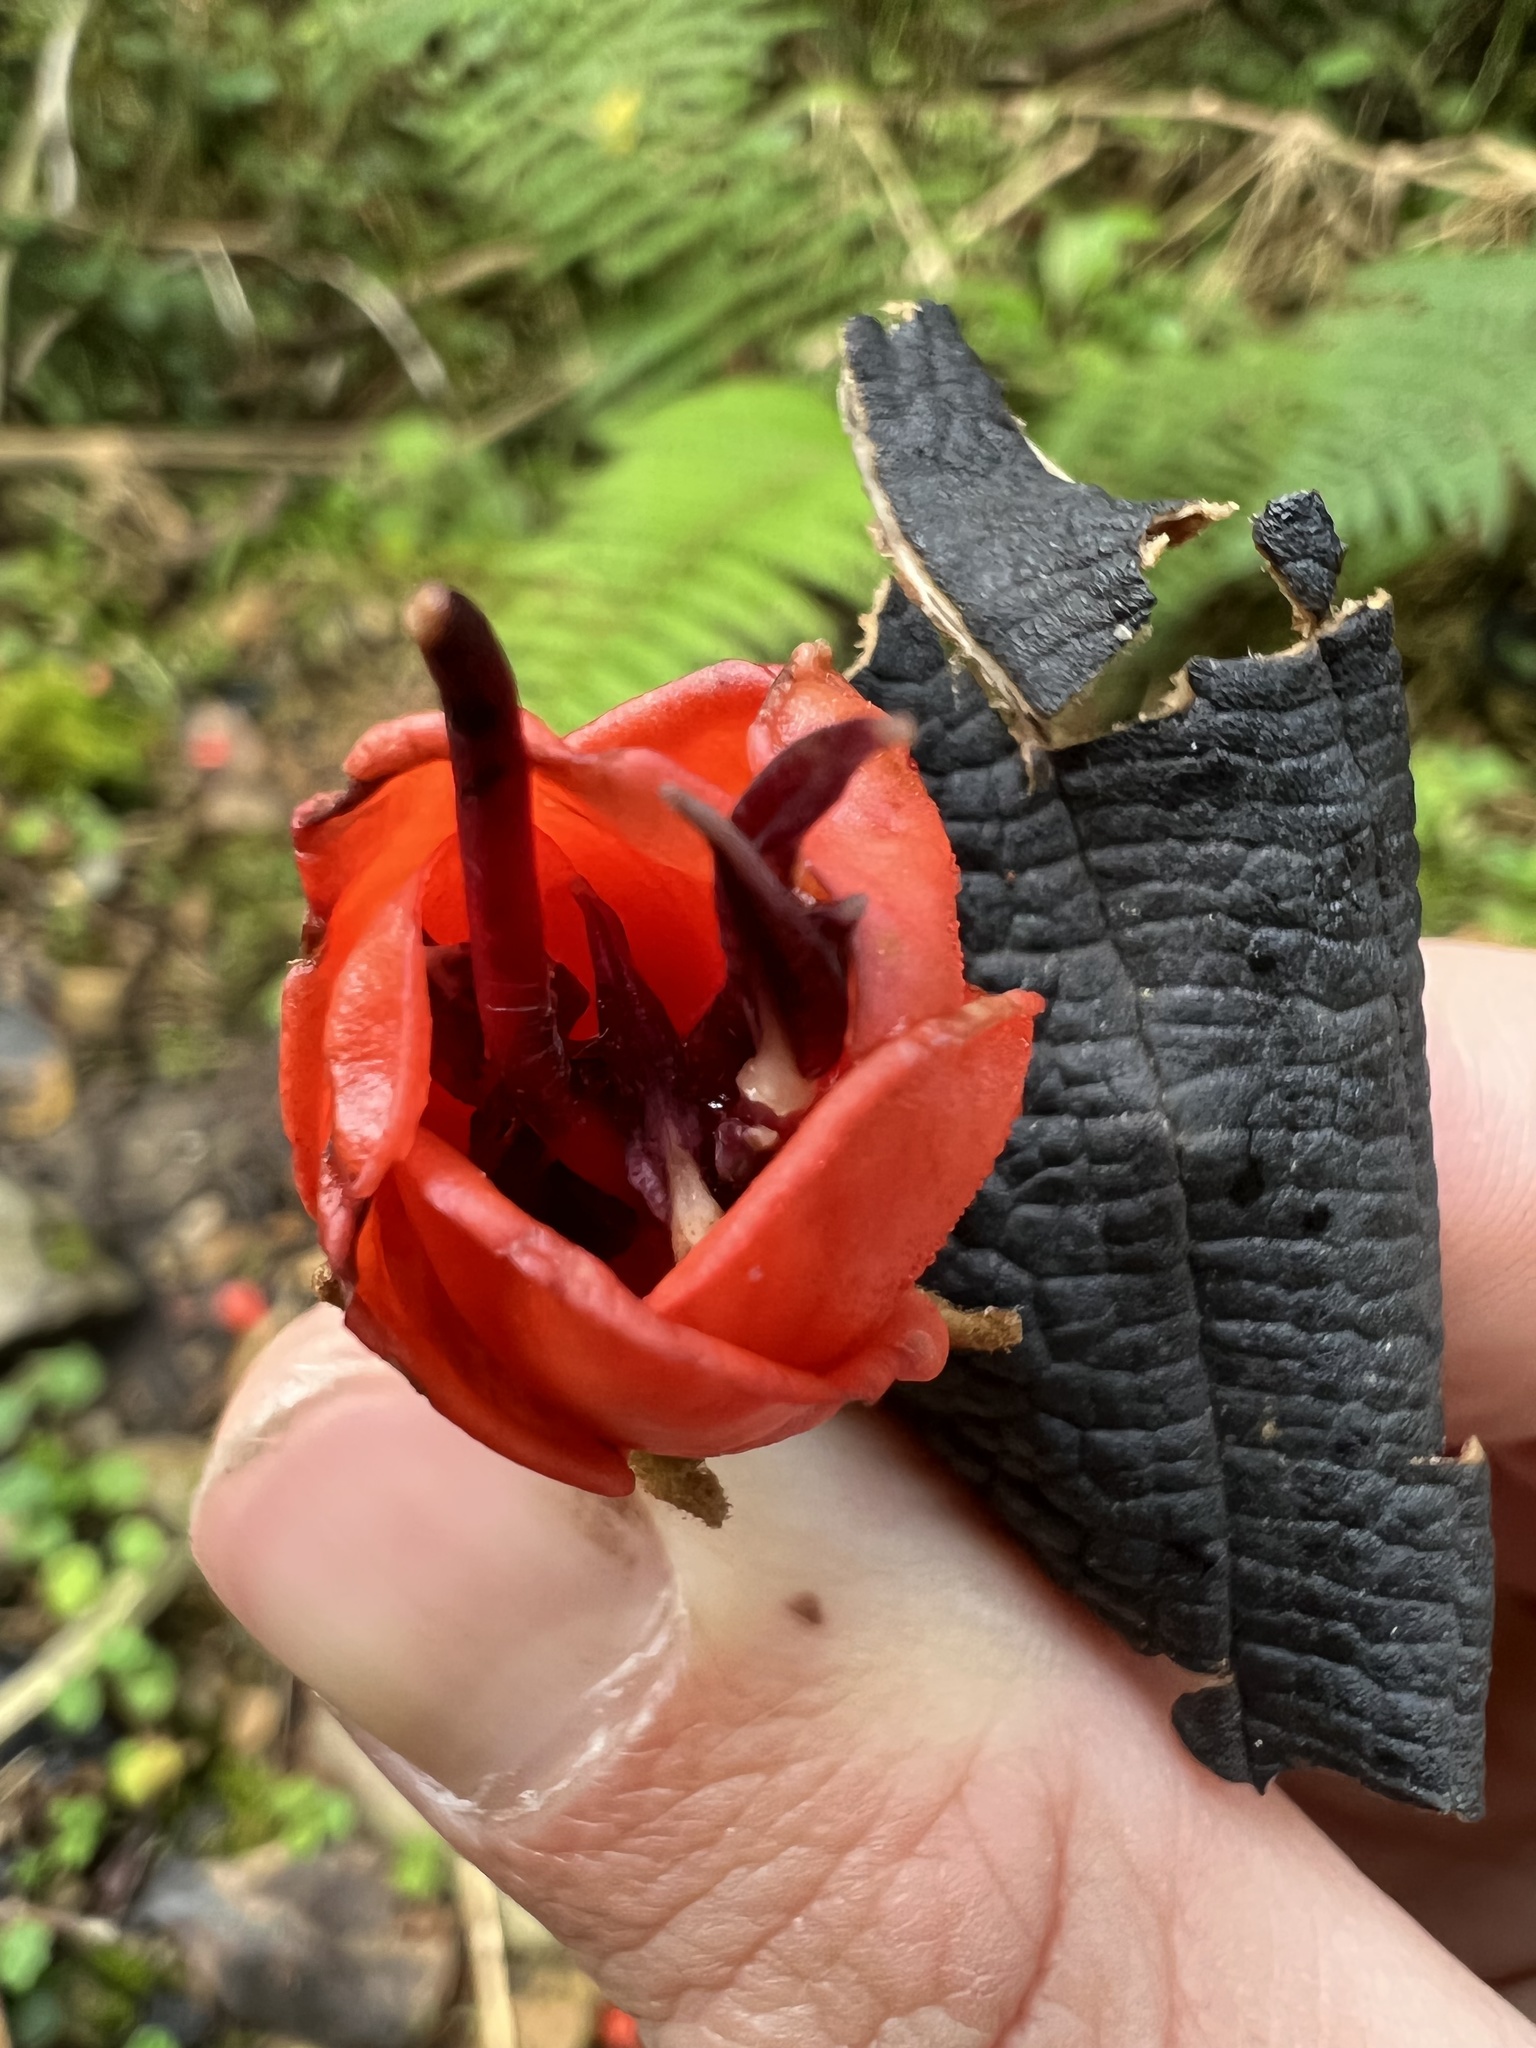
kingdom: Plantae
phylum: Tracheophyta
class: Magnoliopsida
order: Myrtales
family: Melastomataceae
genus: Meriania
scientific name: Meriania colombiana
